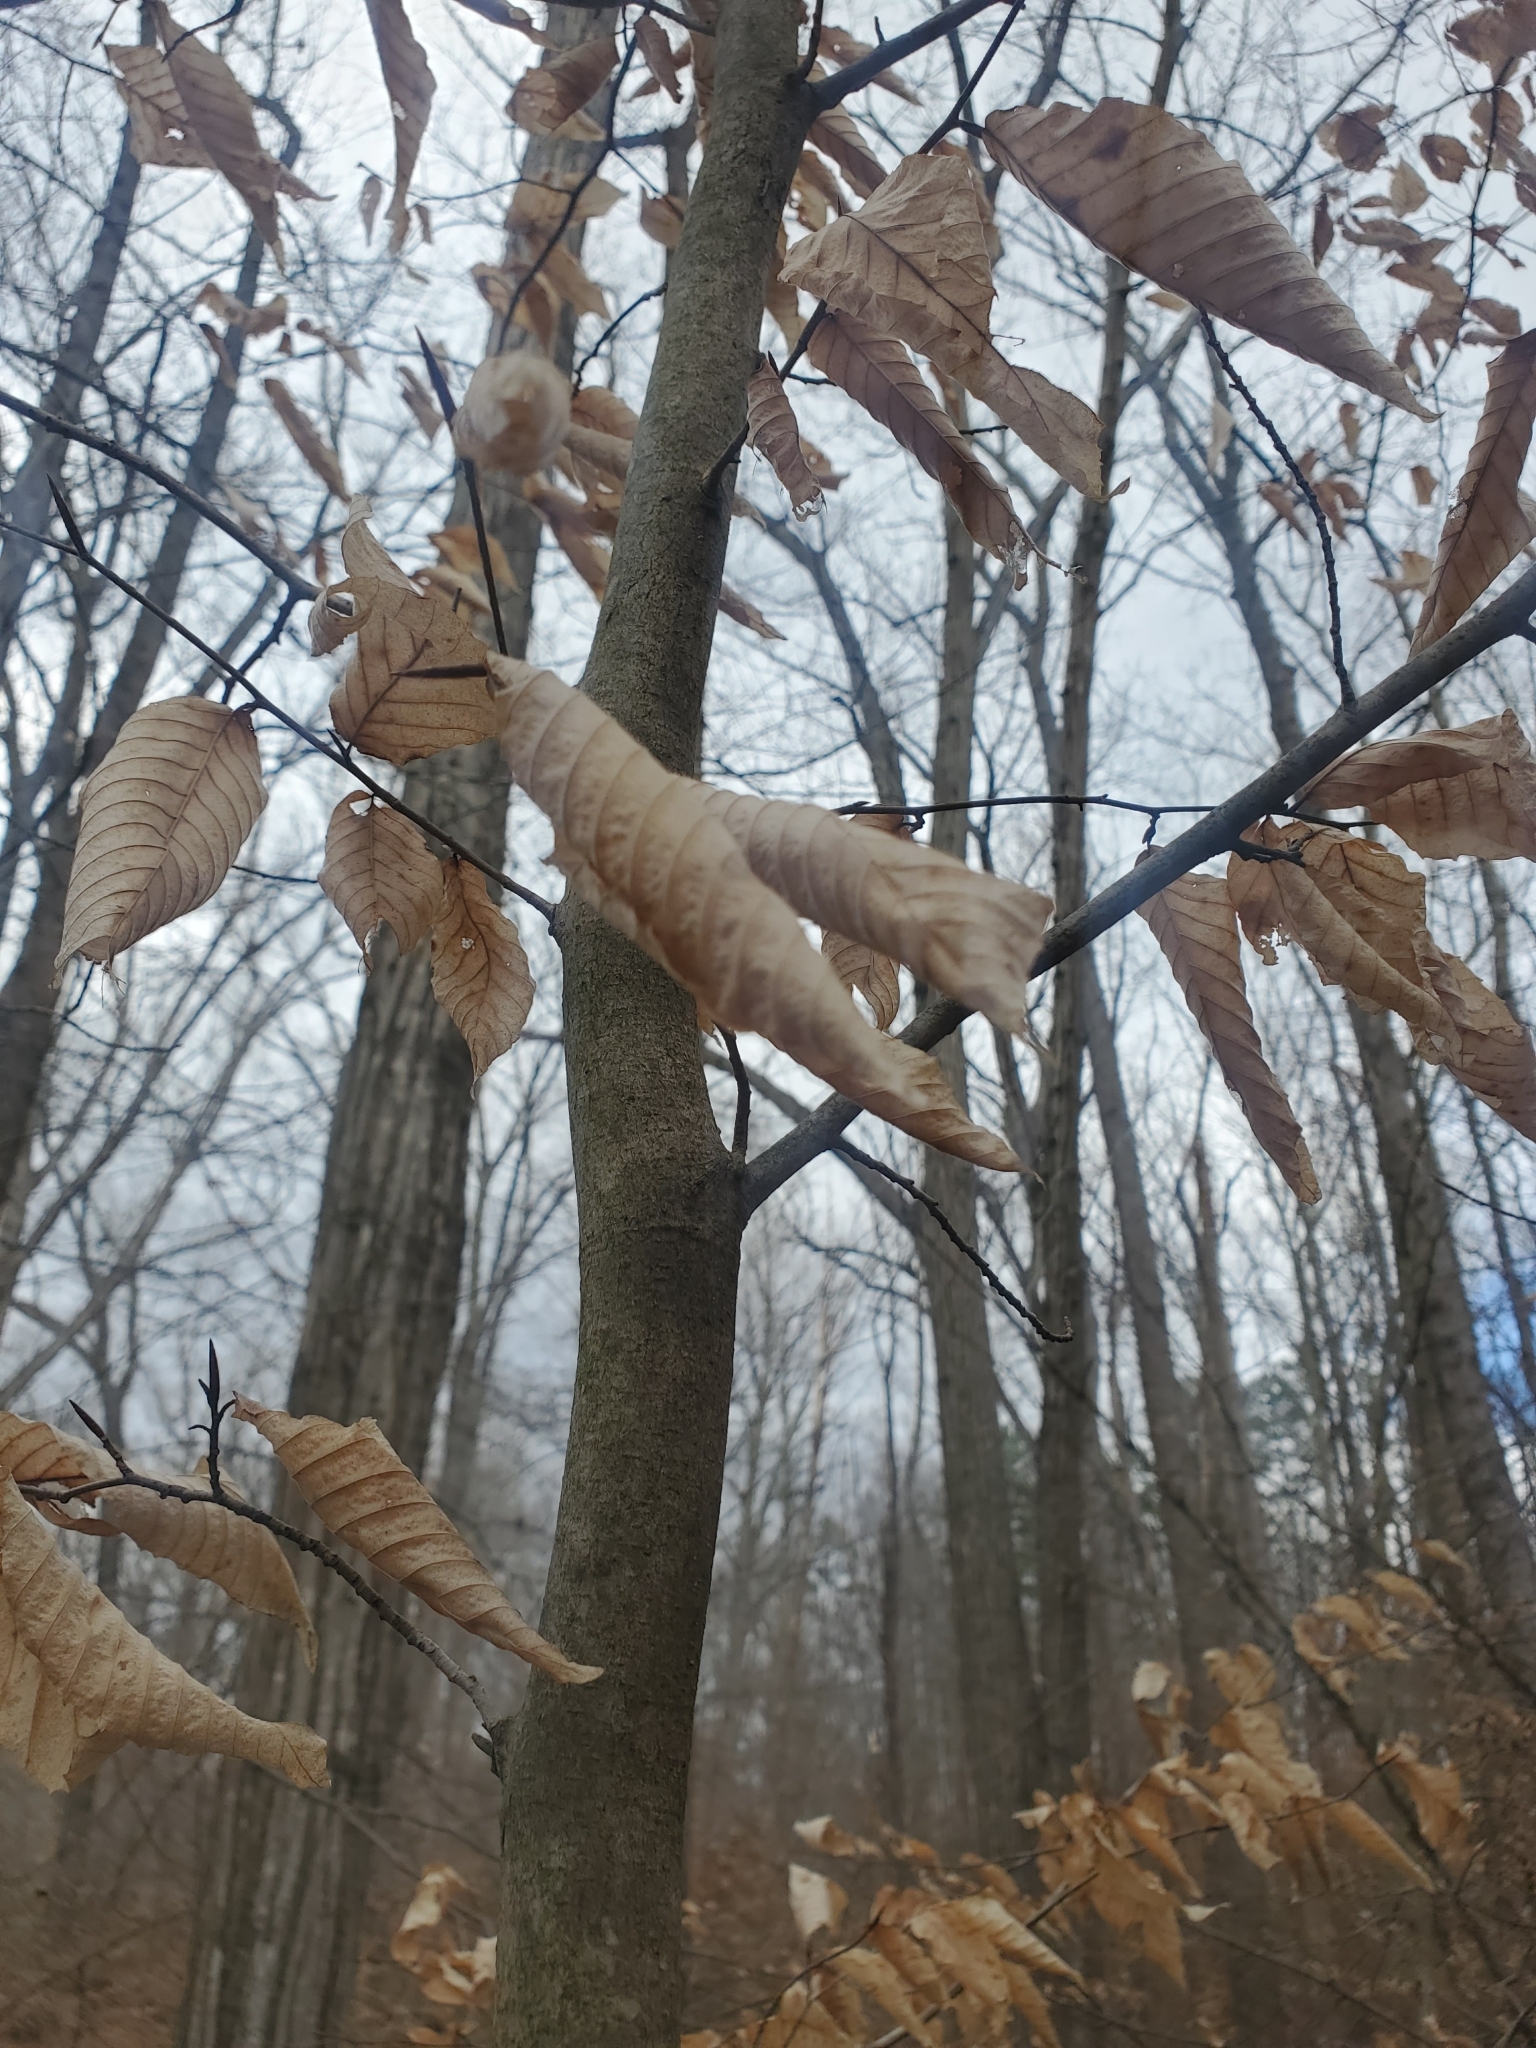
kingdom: Plantae
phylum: Tracheophyta
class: Magnoliopsida
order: Fagales
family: Fagaceae
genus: Fagus
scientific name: Fagus grandifolia
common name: American beech
